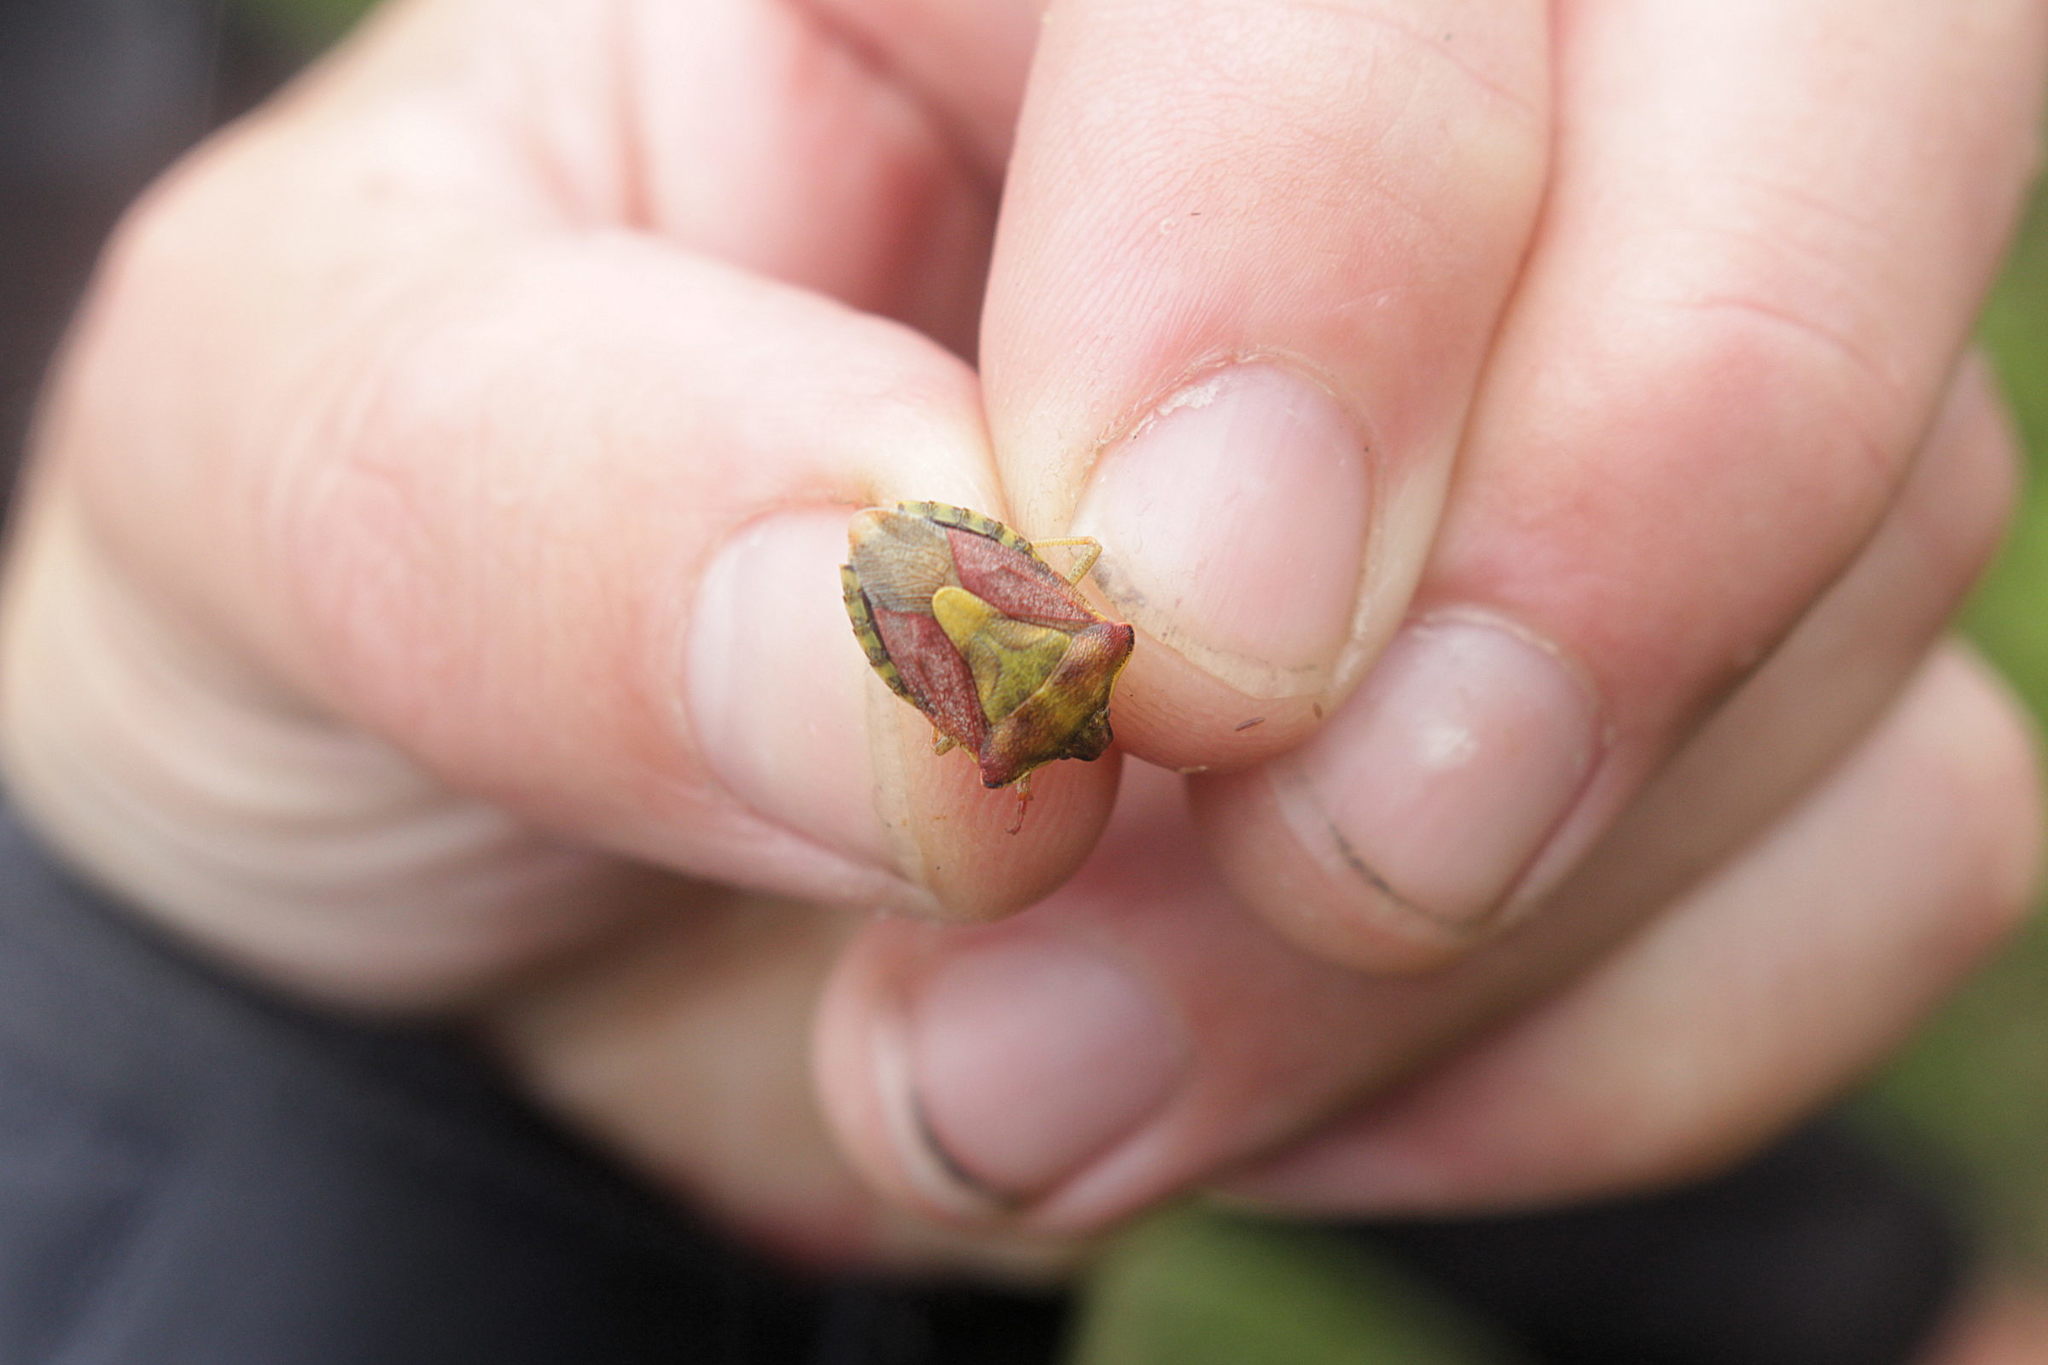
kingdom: Animalia
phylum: Arthropoda
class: Insecta
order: Hemiptera
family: Pentatomidae
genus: Carpocoris
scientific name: Carpocoris purpureipennis
